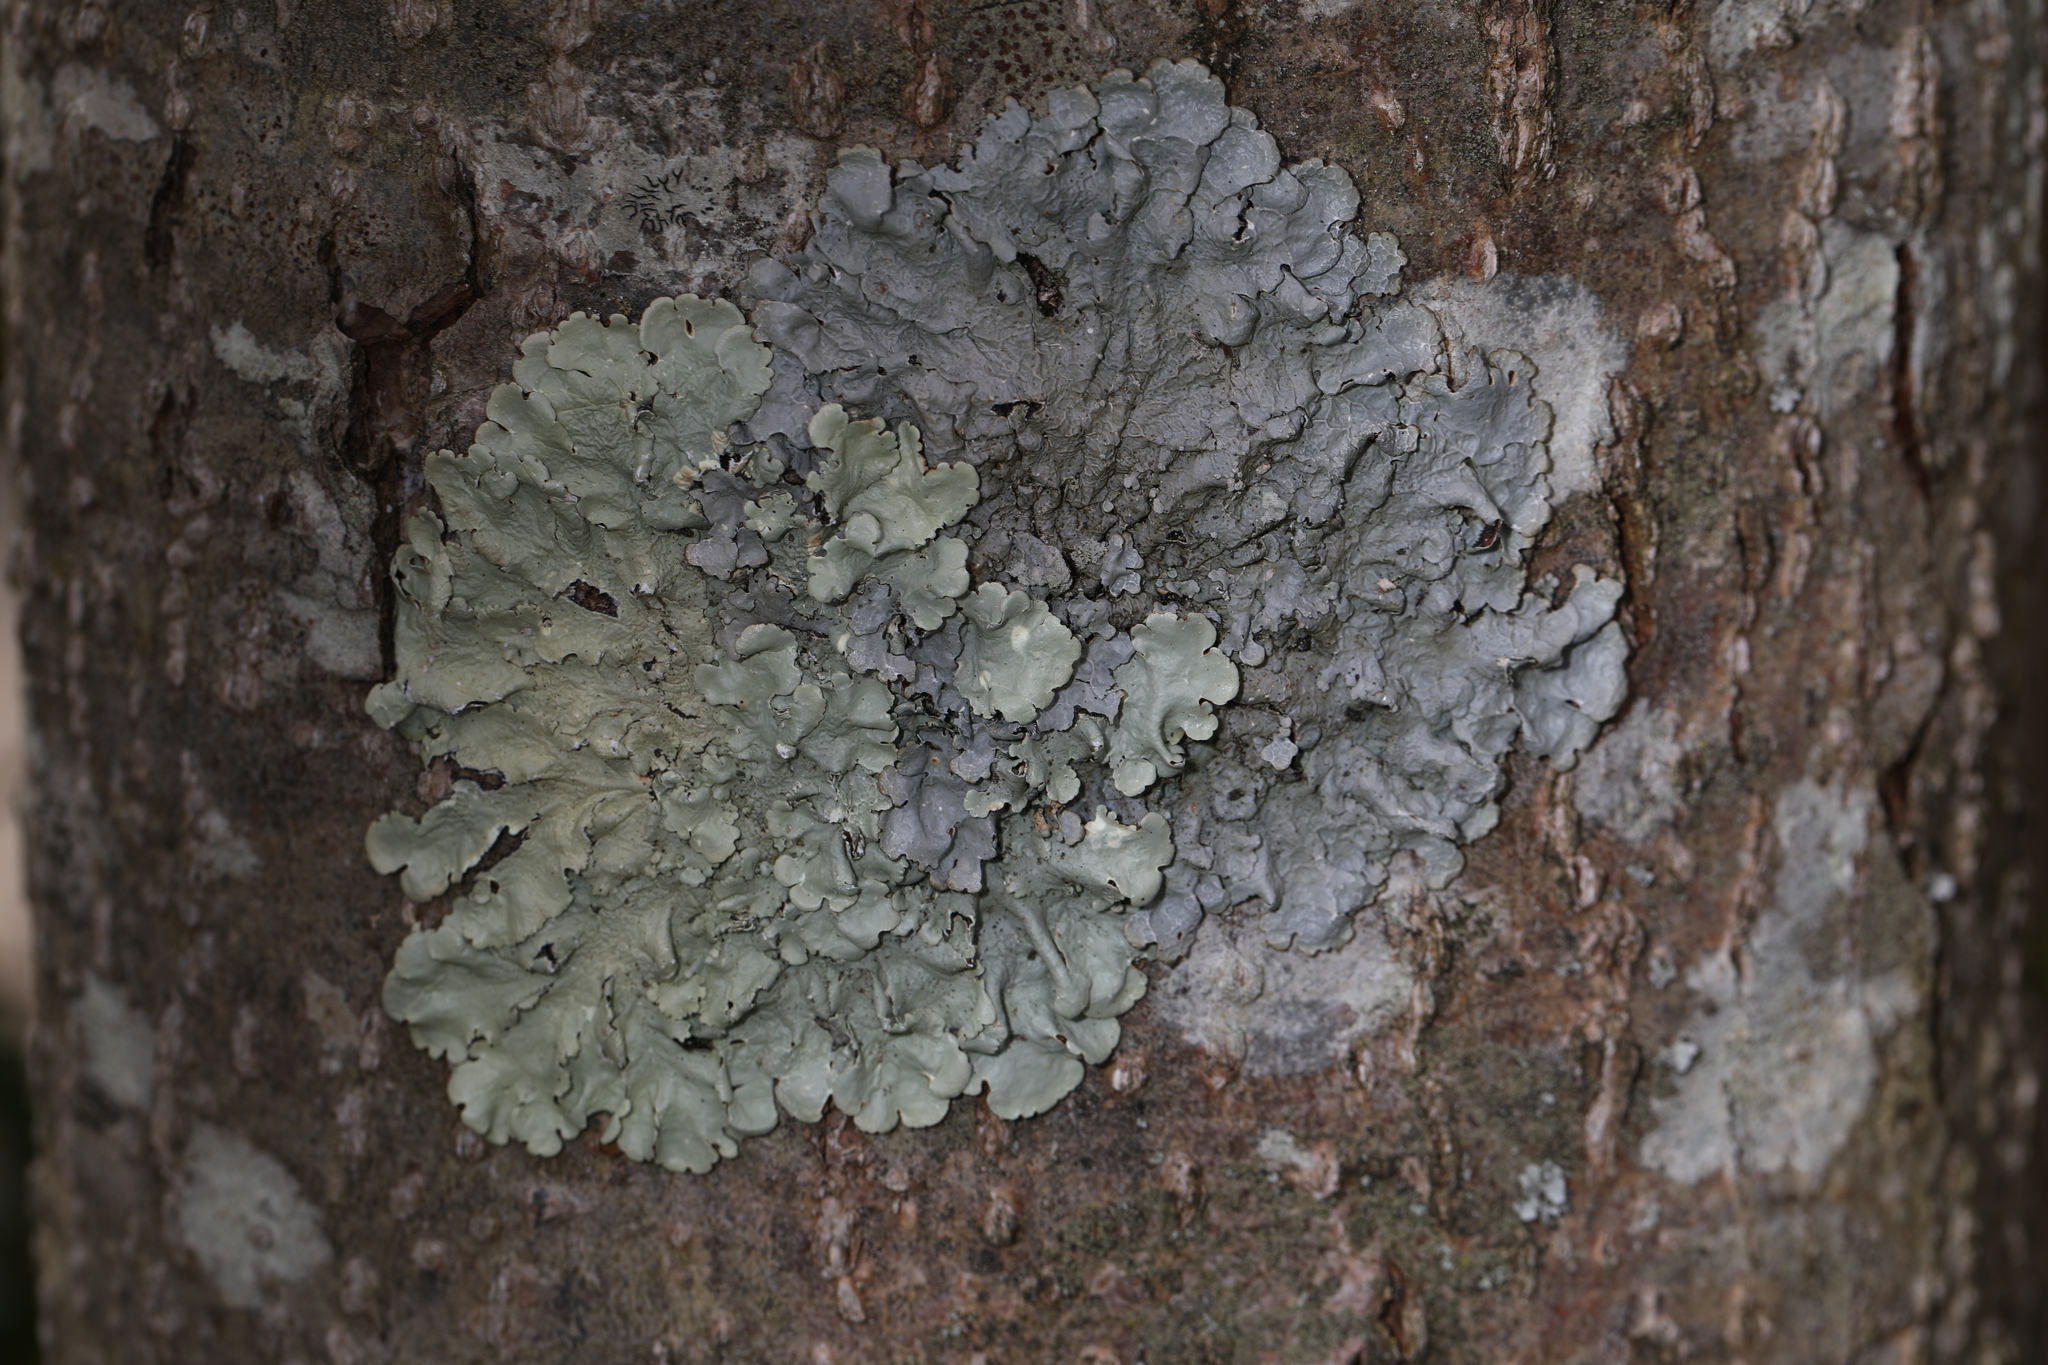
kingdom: Fungi
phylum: Ascomycota
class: Lecanoromycetes
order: Lecanorales
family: Parmeliaceae
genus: Flavoparmelia
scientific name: Flavoparmelia caperata
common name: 40-mile per hour lichen
